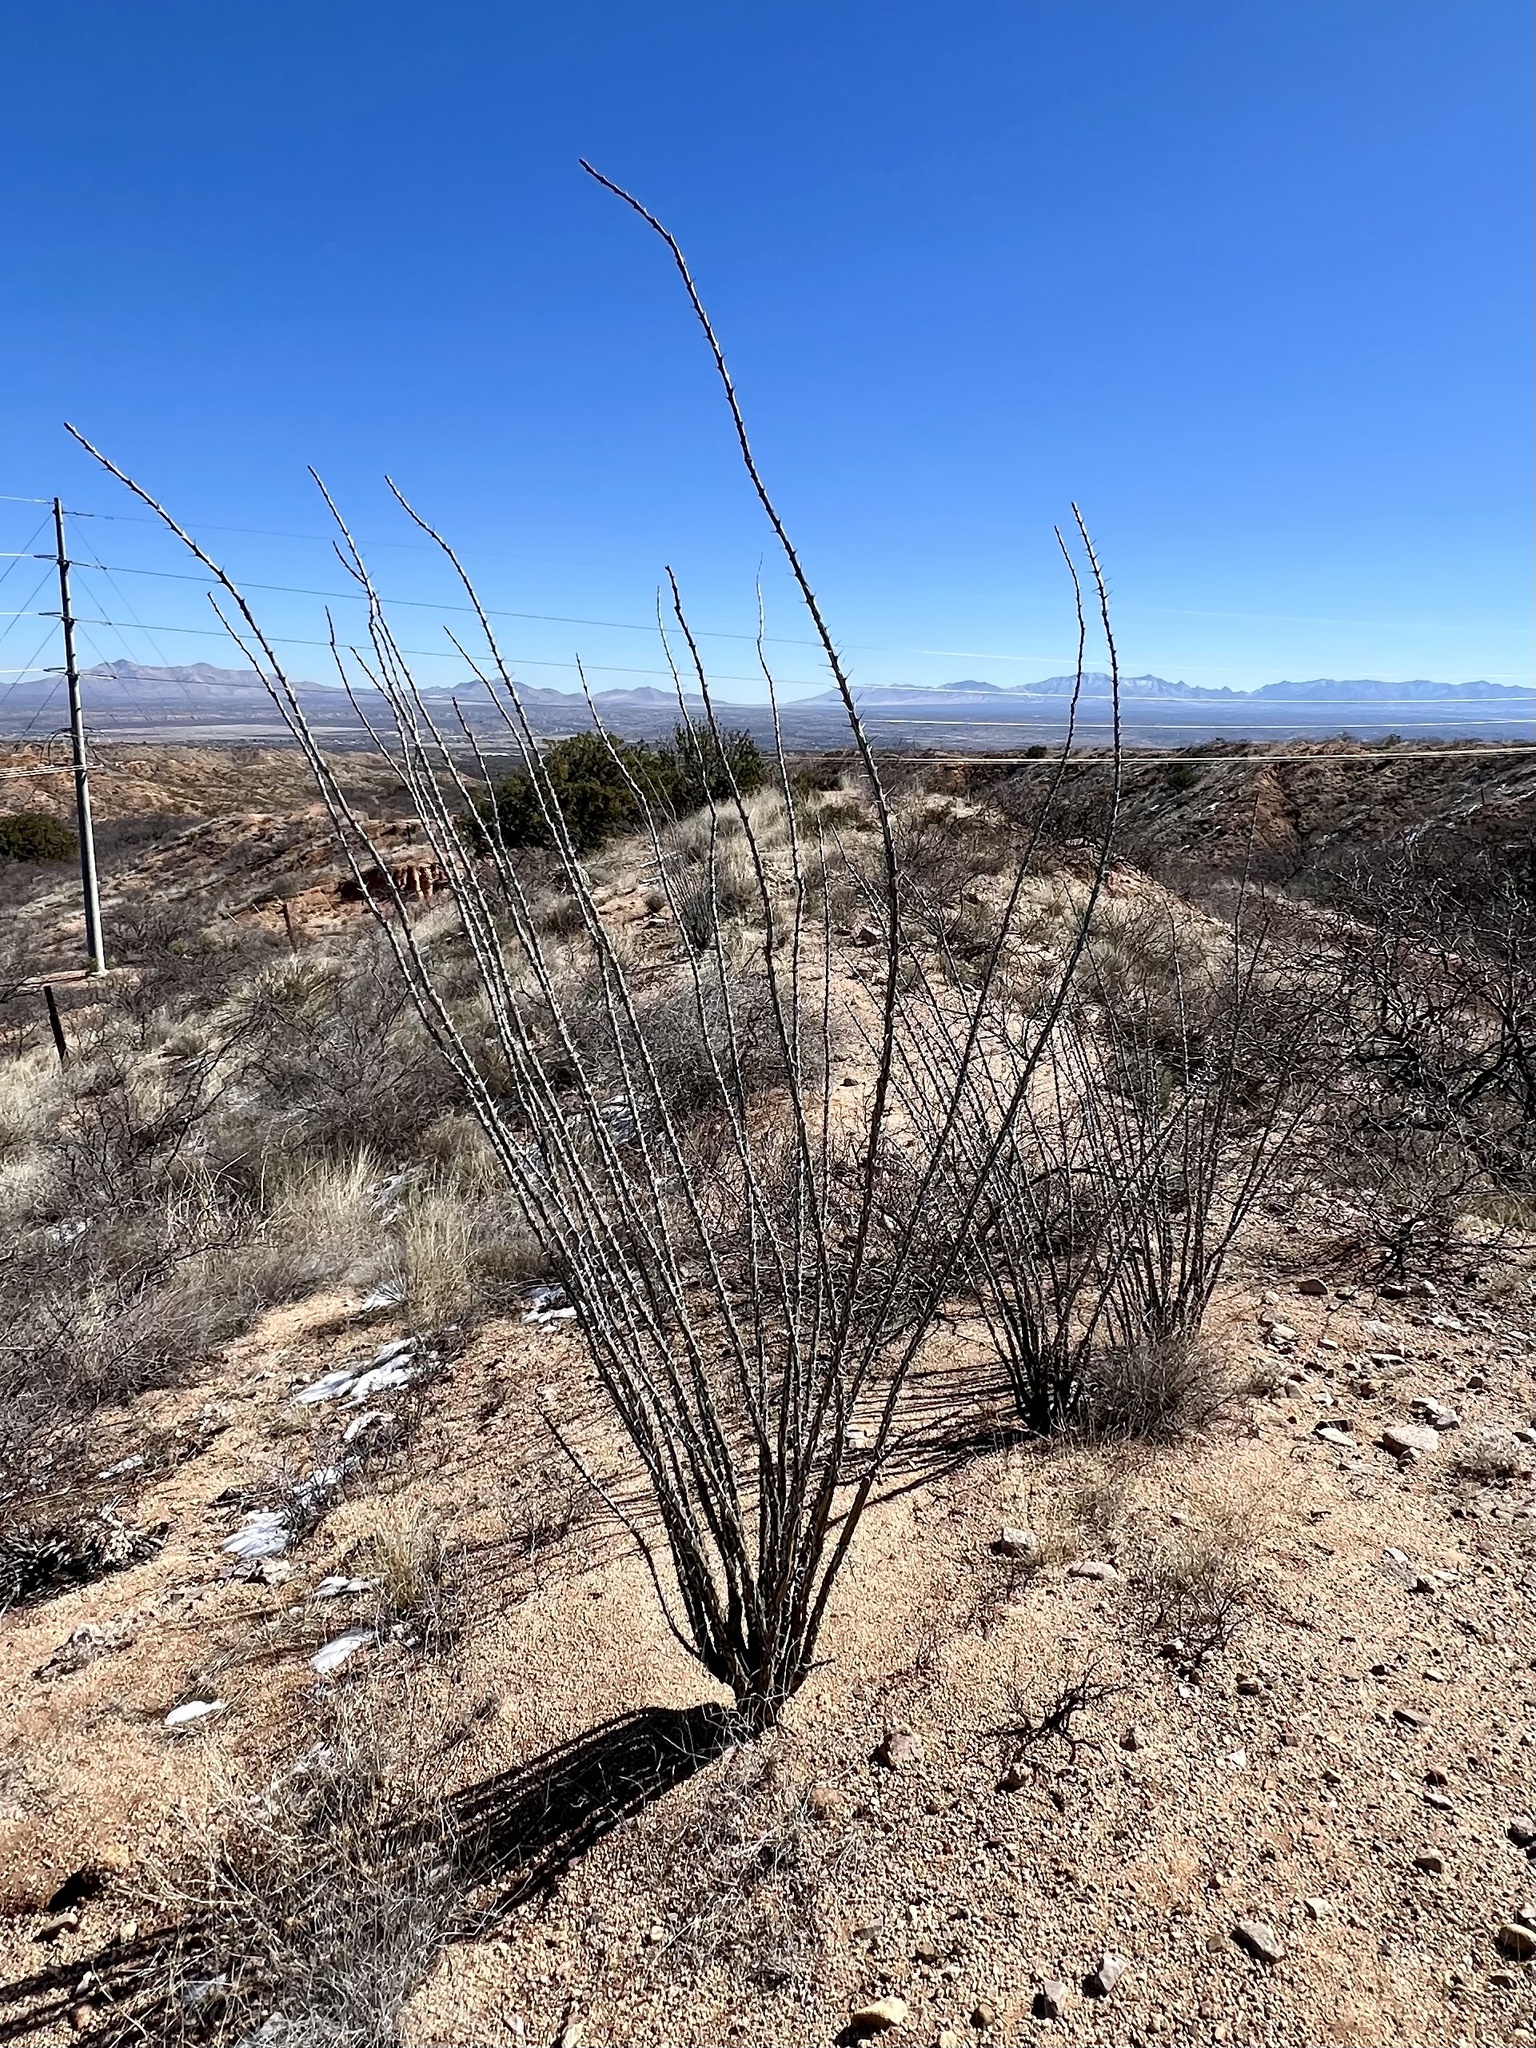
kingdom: Plantae
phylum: Tracheophyta
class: Magnoliopsida
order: Ericales
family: Fouquieriaceae
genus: Fouquieria
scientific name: Fouquieria splendens
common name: Vine-cactus
